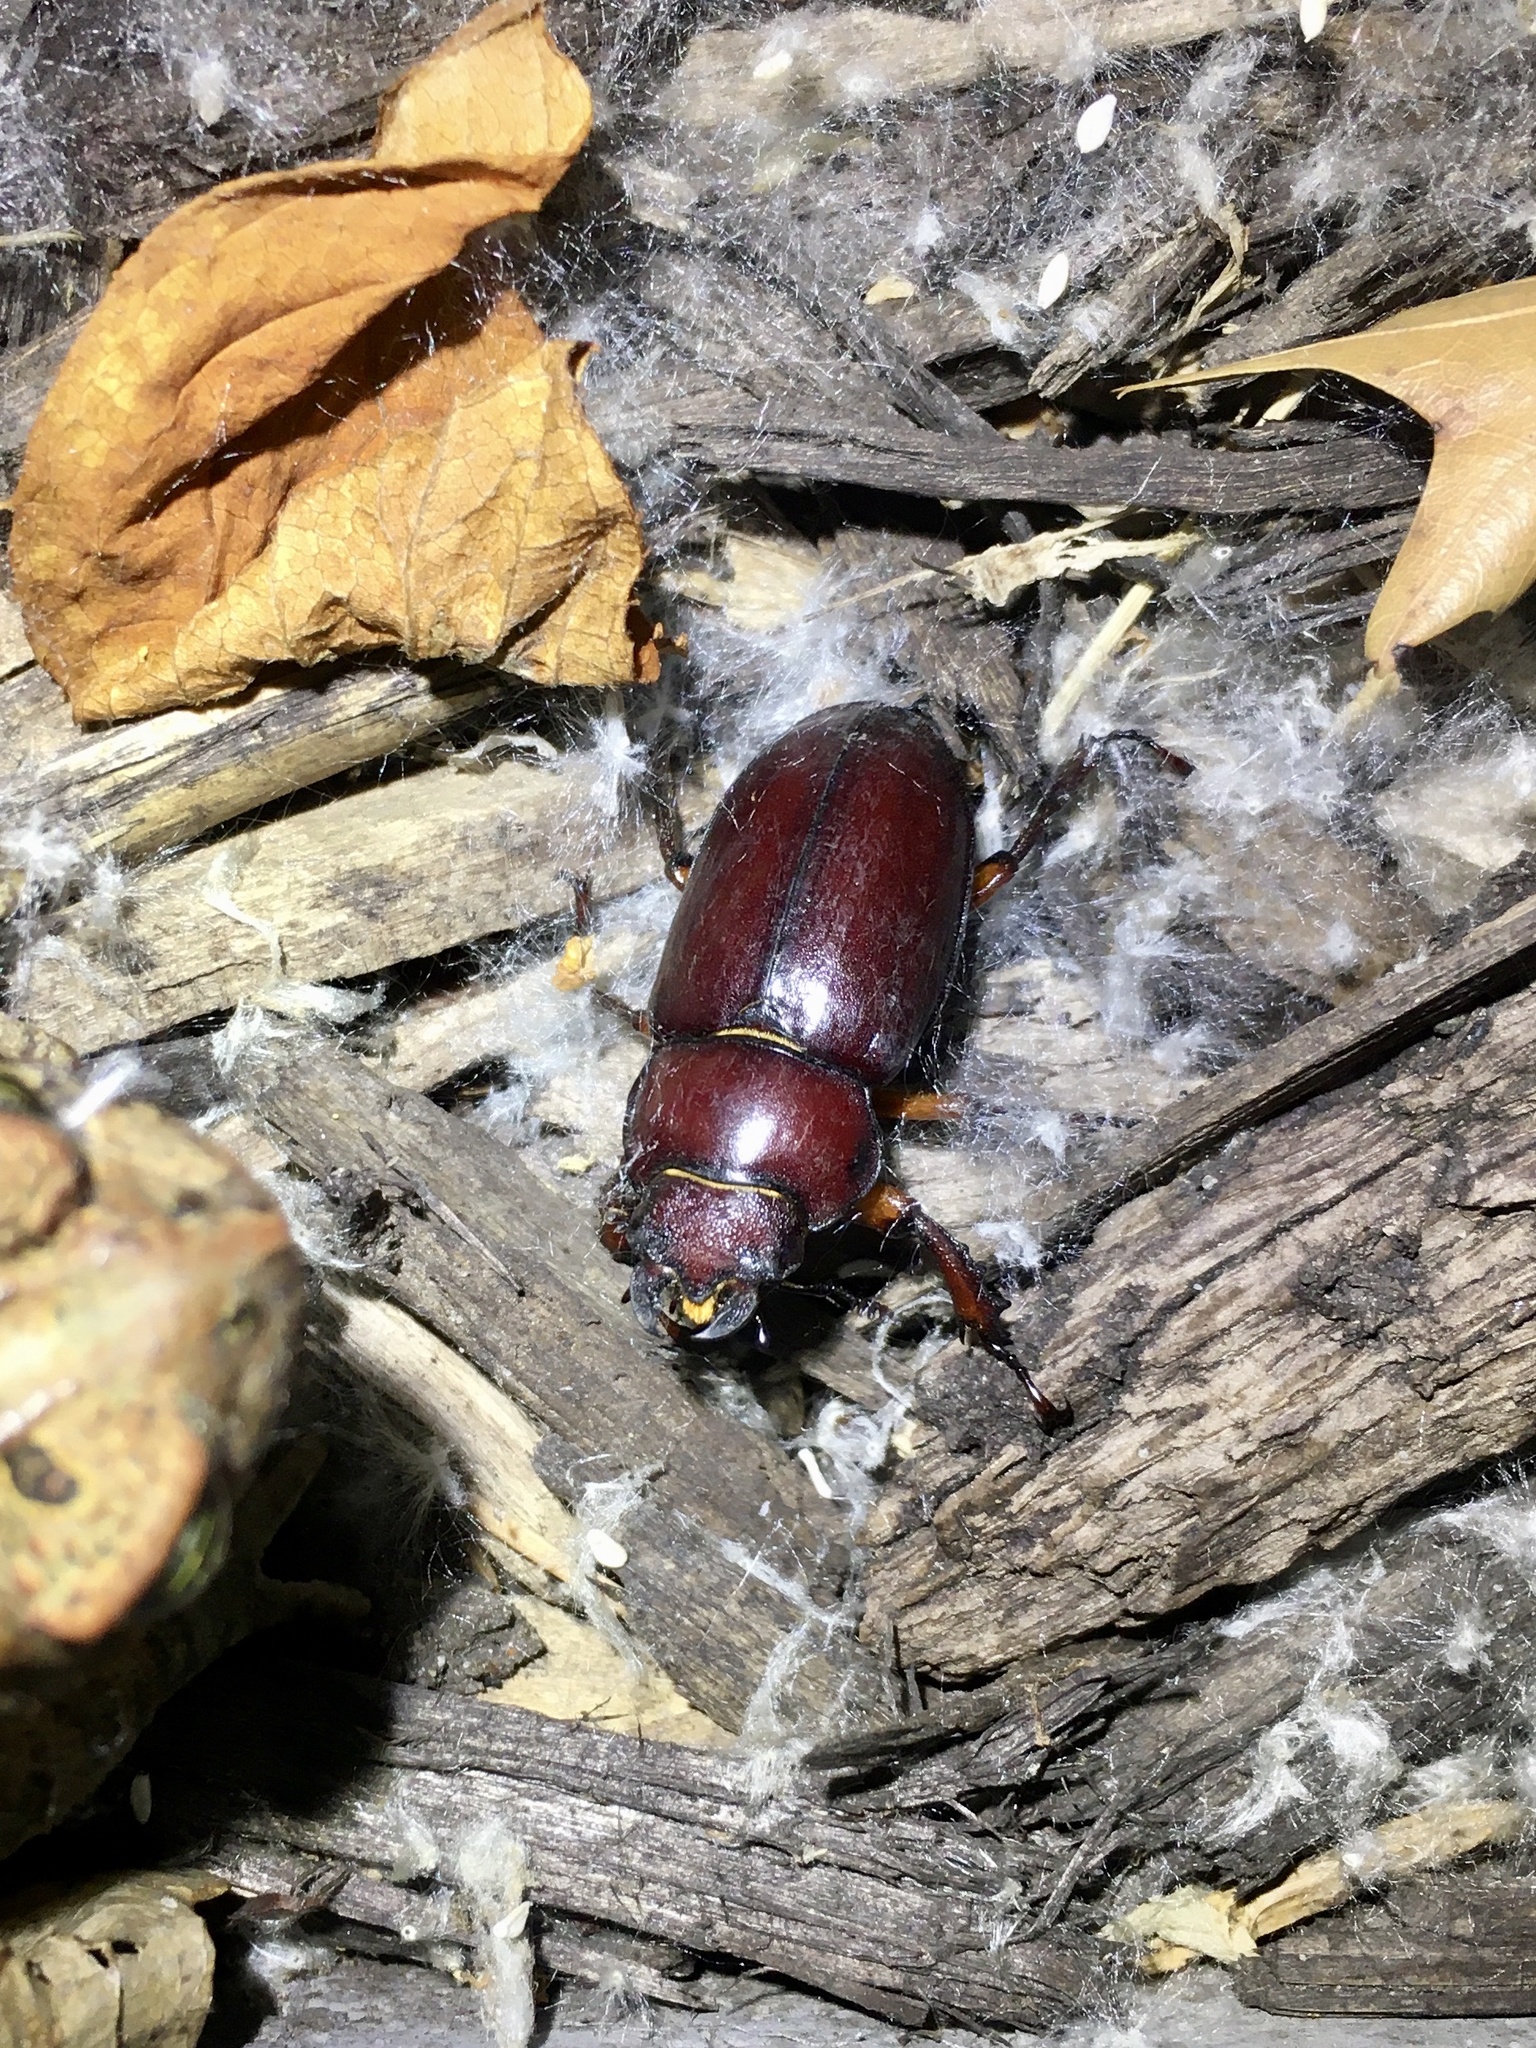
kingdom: Animalia
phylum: Arthropoda
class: Insecta
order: Coleoptera
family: Lucanidae
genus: Lucanus
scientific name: Lucanus capreolus
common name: Stag beetle
